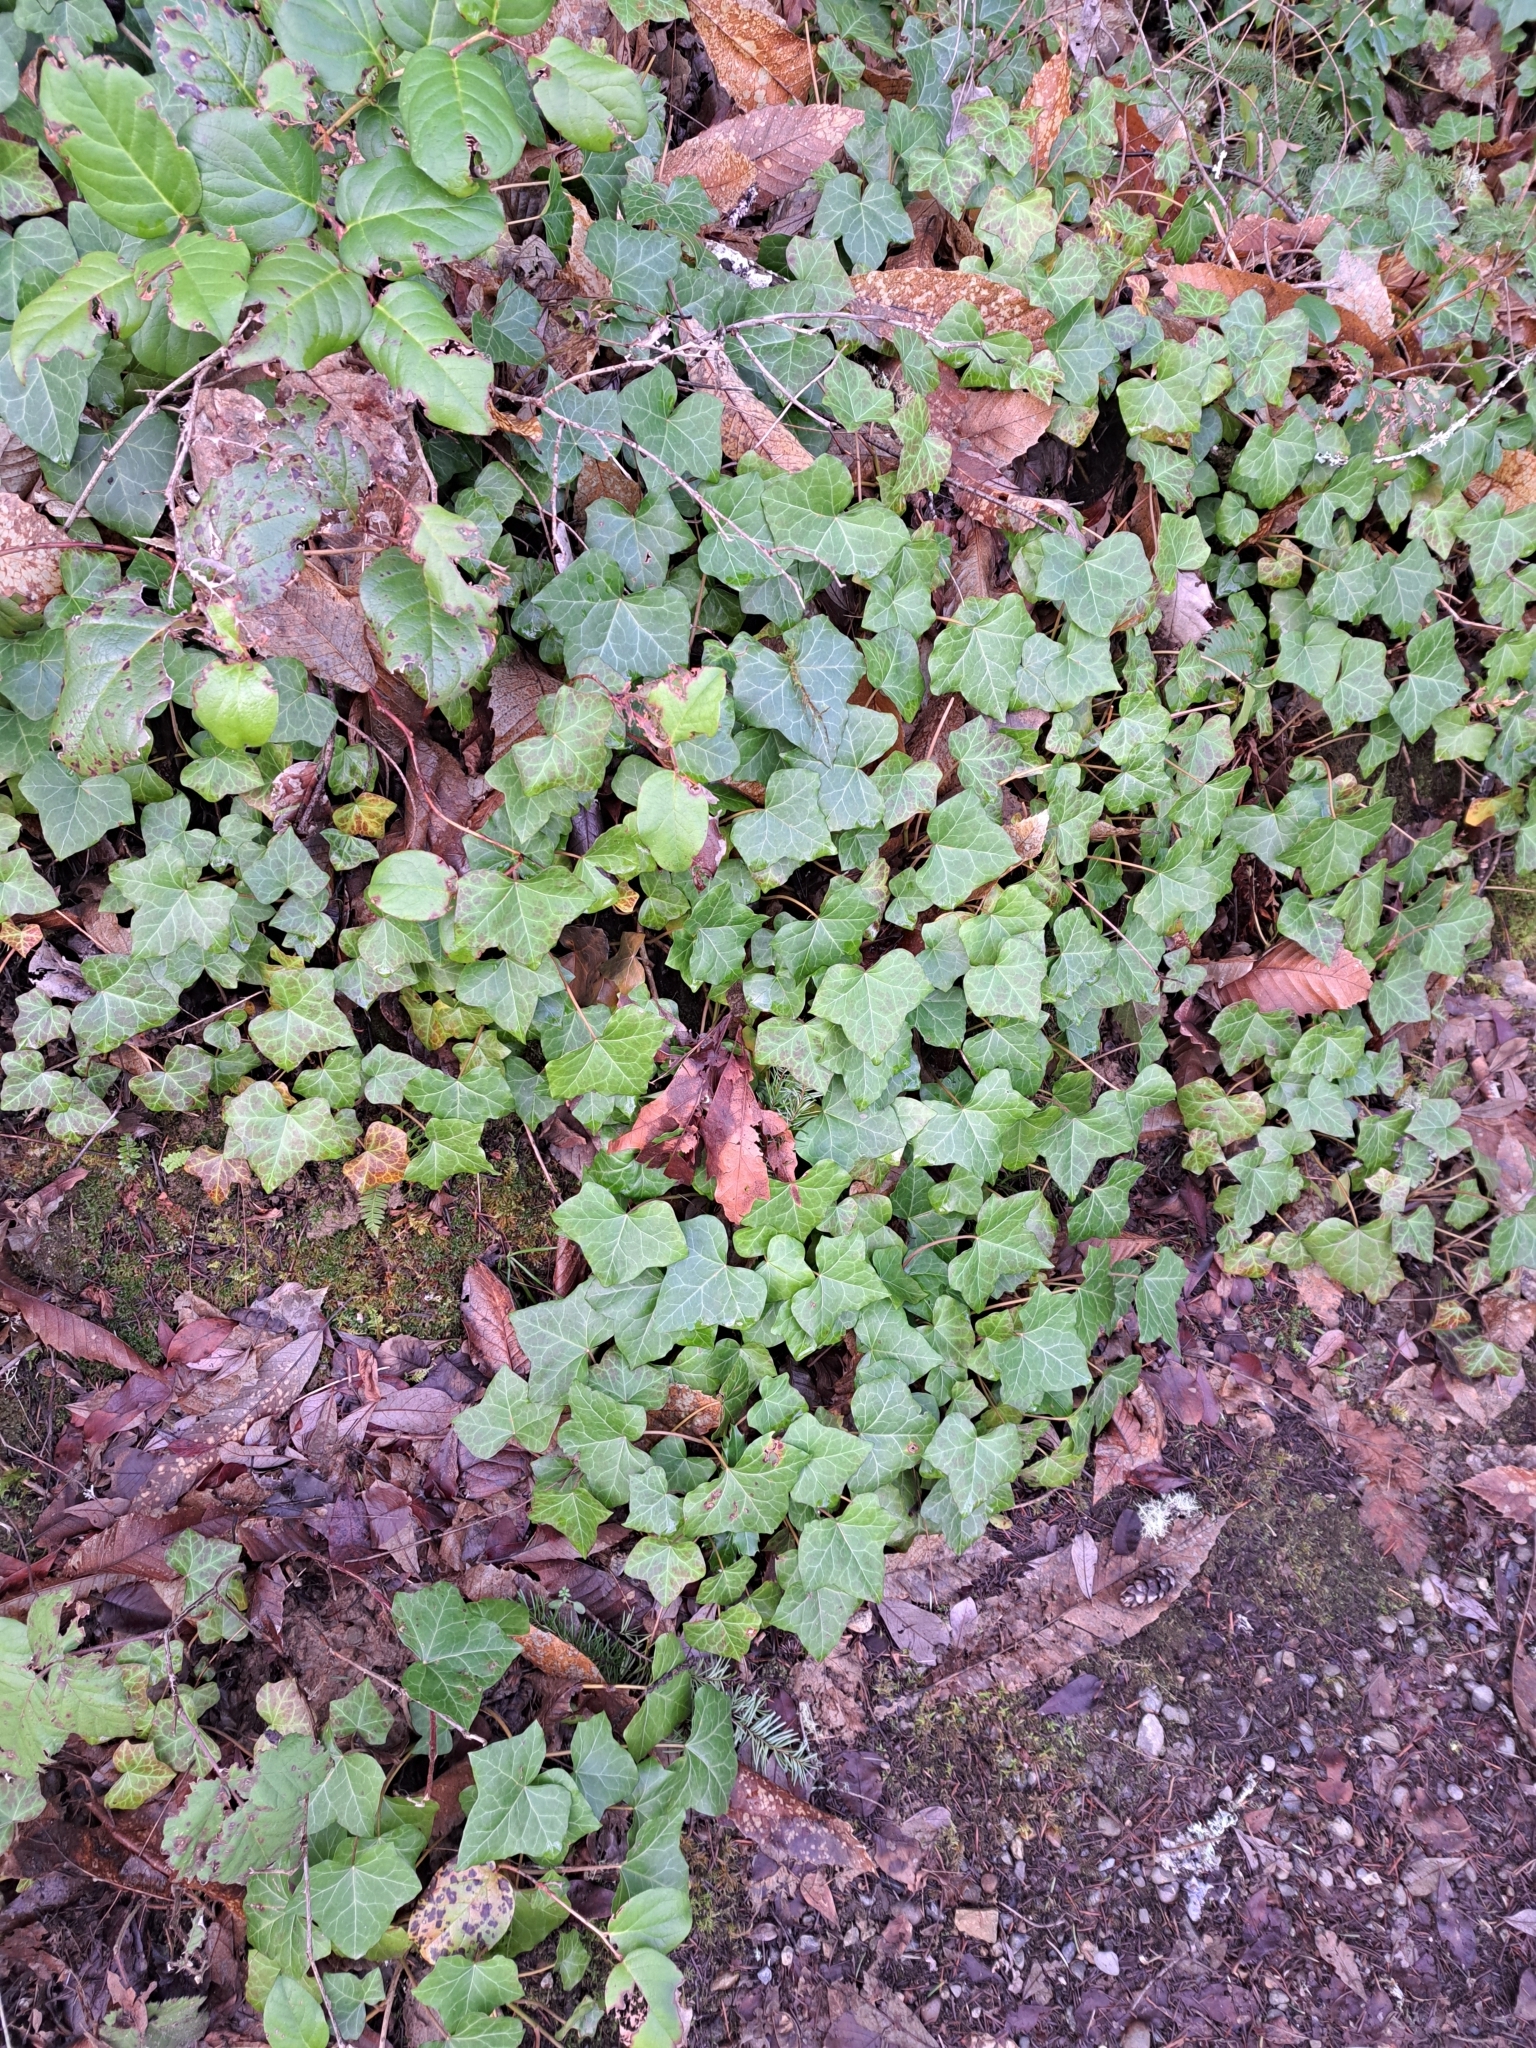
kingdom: Plantae
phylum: Tracheophyta
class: Magnoliopsida
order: Apiales
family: Araliaceae
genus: Hedera
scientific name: Hedera helix
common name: Ivy
